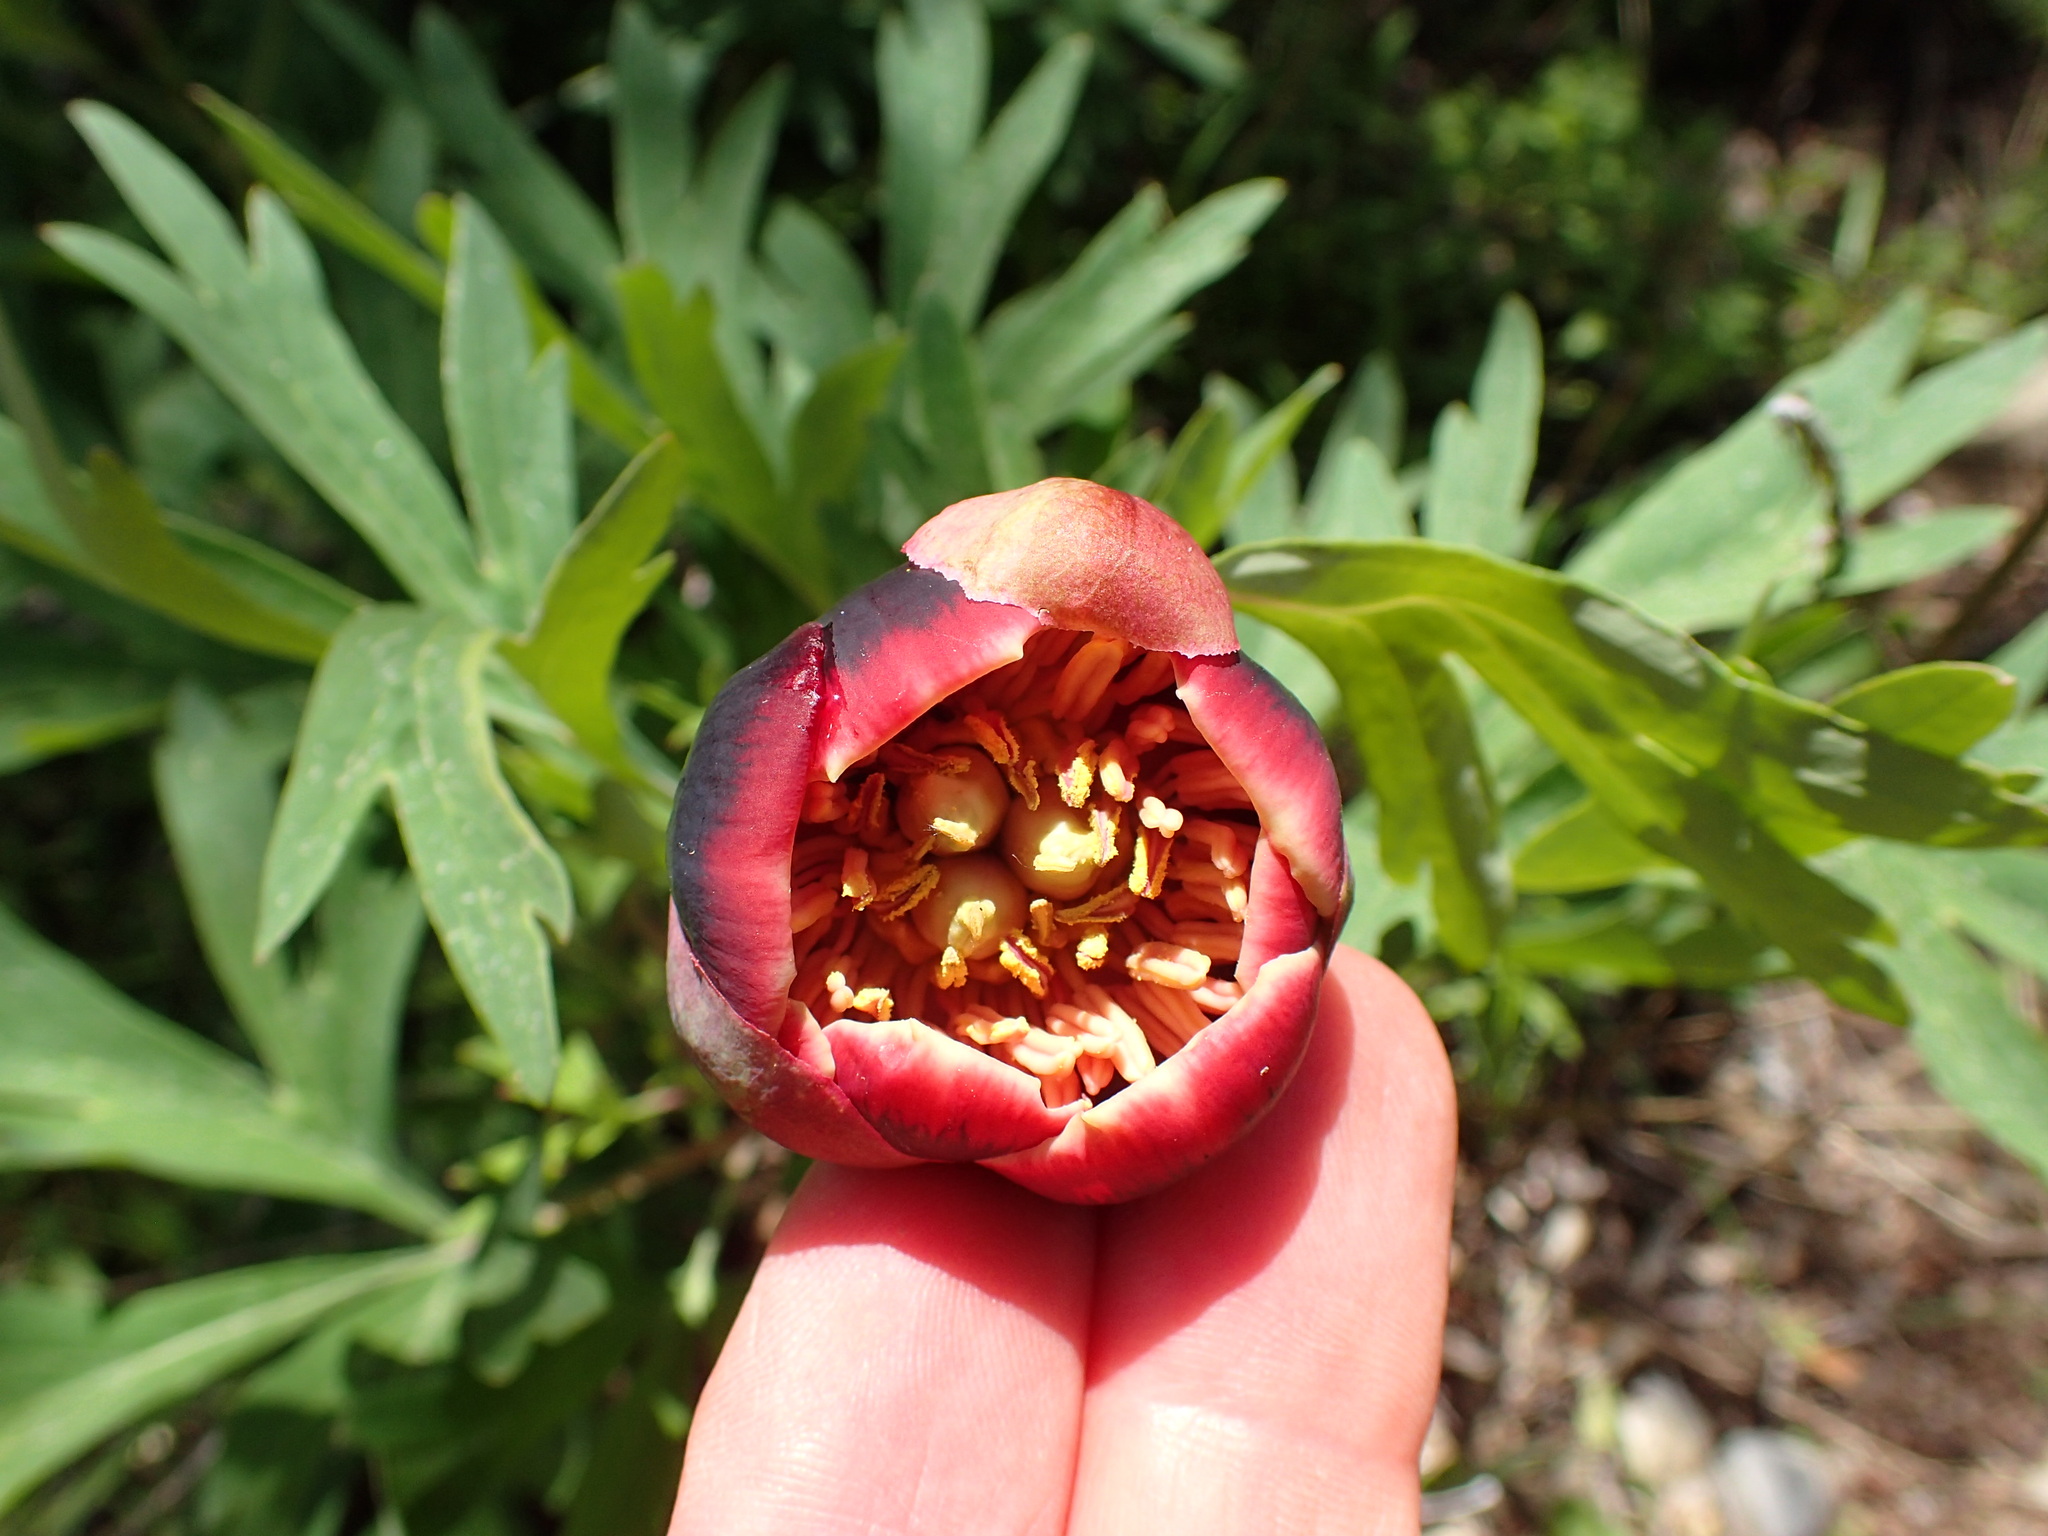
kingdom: Plantae
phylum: Tracheophyta
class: Magnoliopsida
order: Saxifragales
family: Paeoniaceae
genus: Paeonia
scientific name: Paeonia californica
